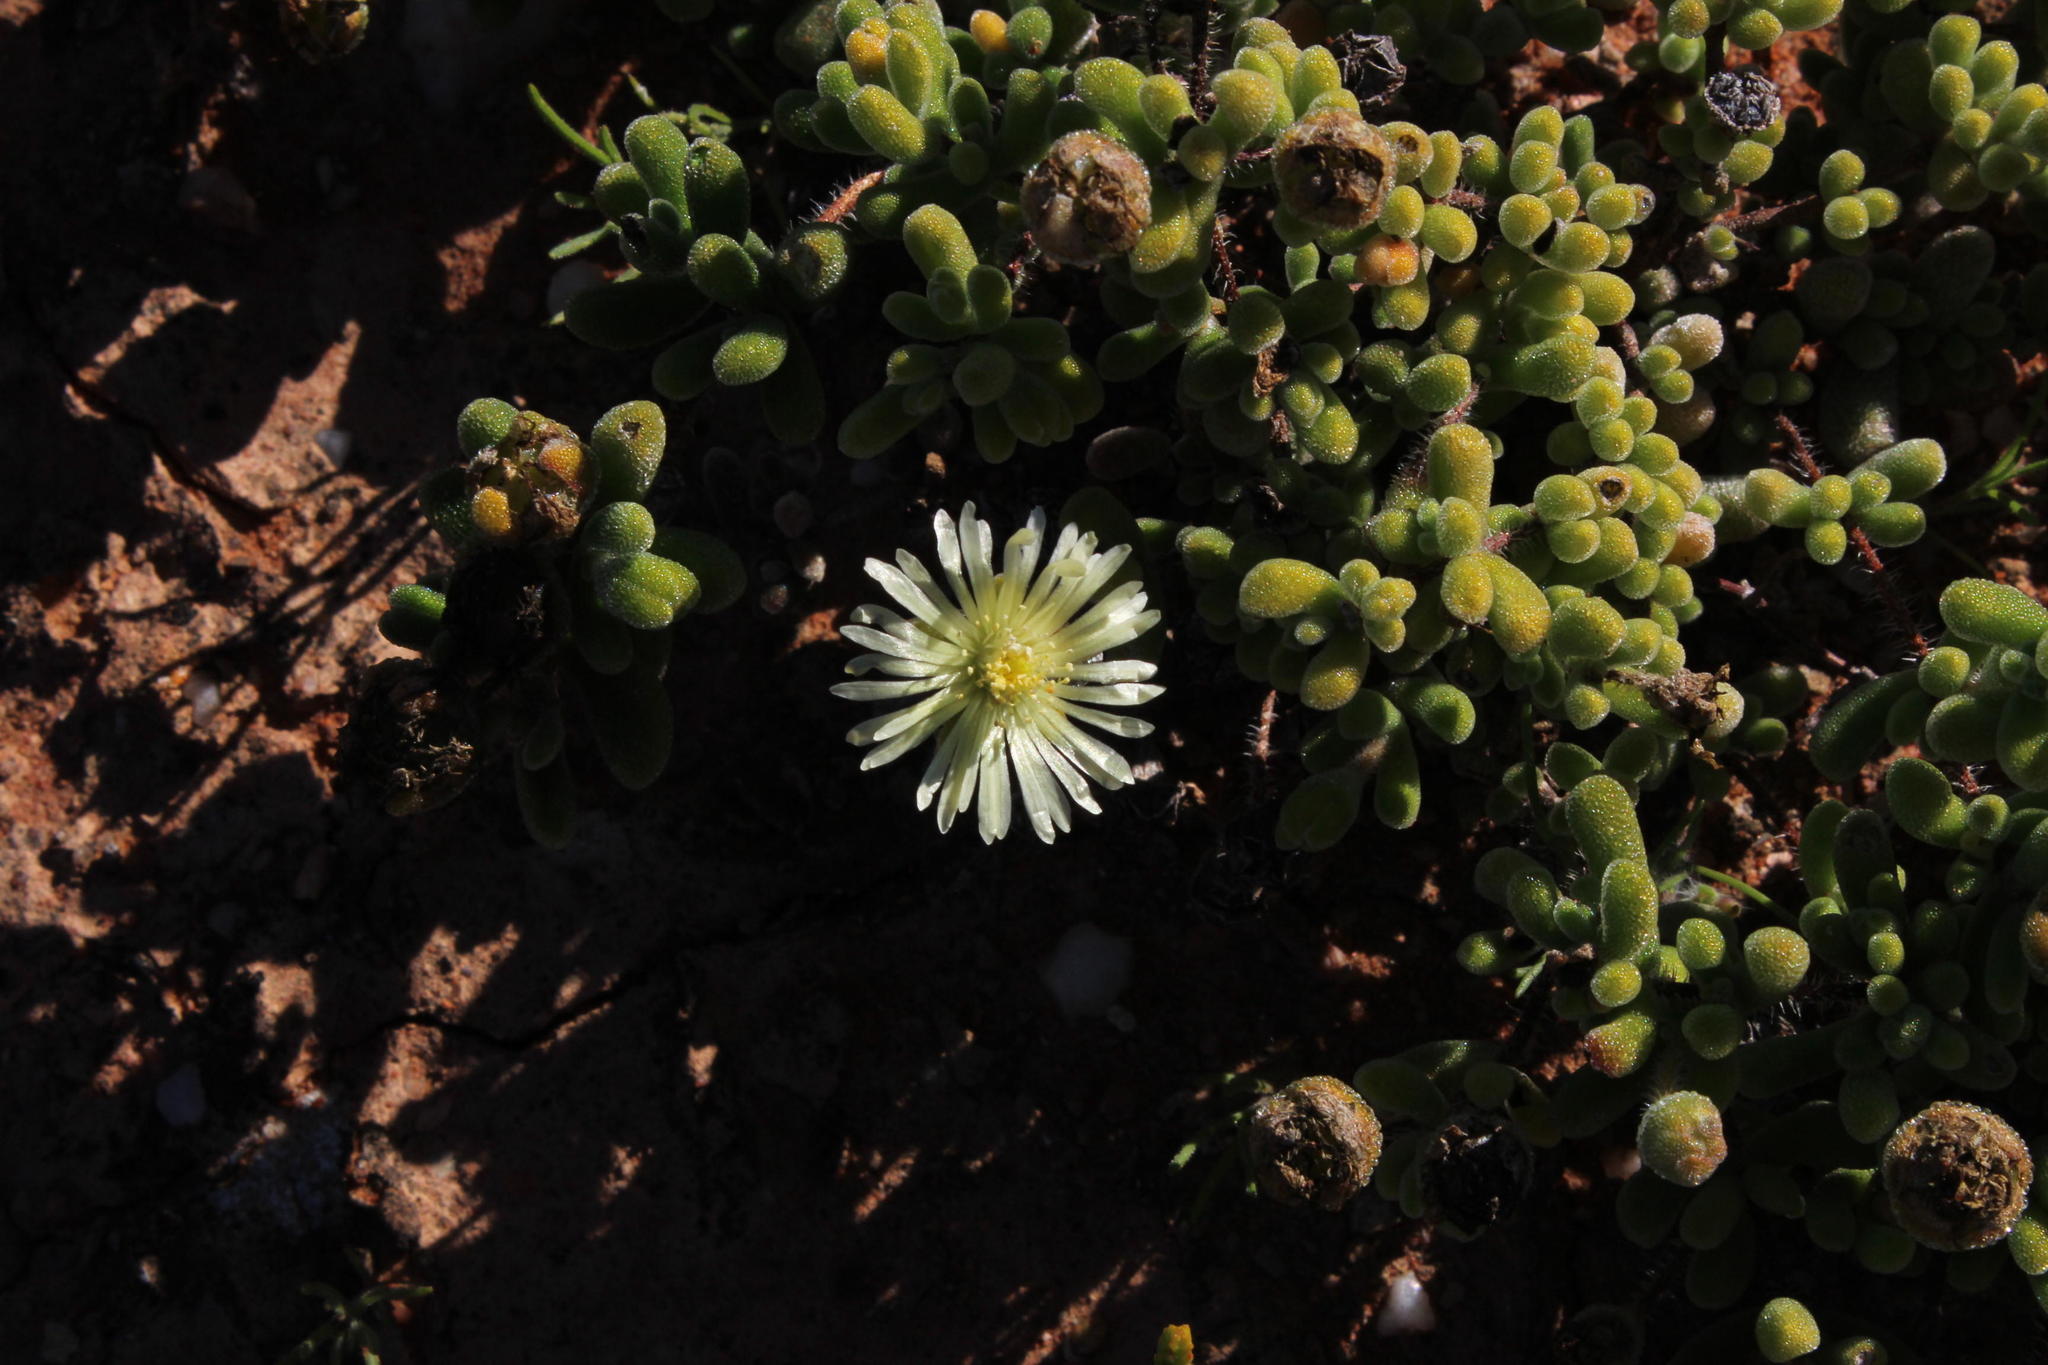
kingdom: Plantae
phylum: Tracheophyta
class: Magnoliopsida
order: Caryophyllales
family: Aizoaceae
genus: Drosanthemum
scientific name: Drosanthemum schoenlandianum
